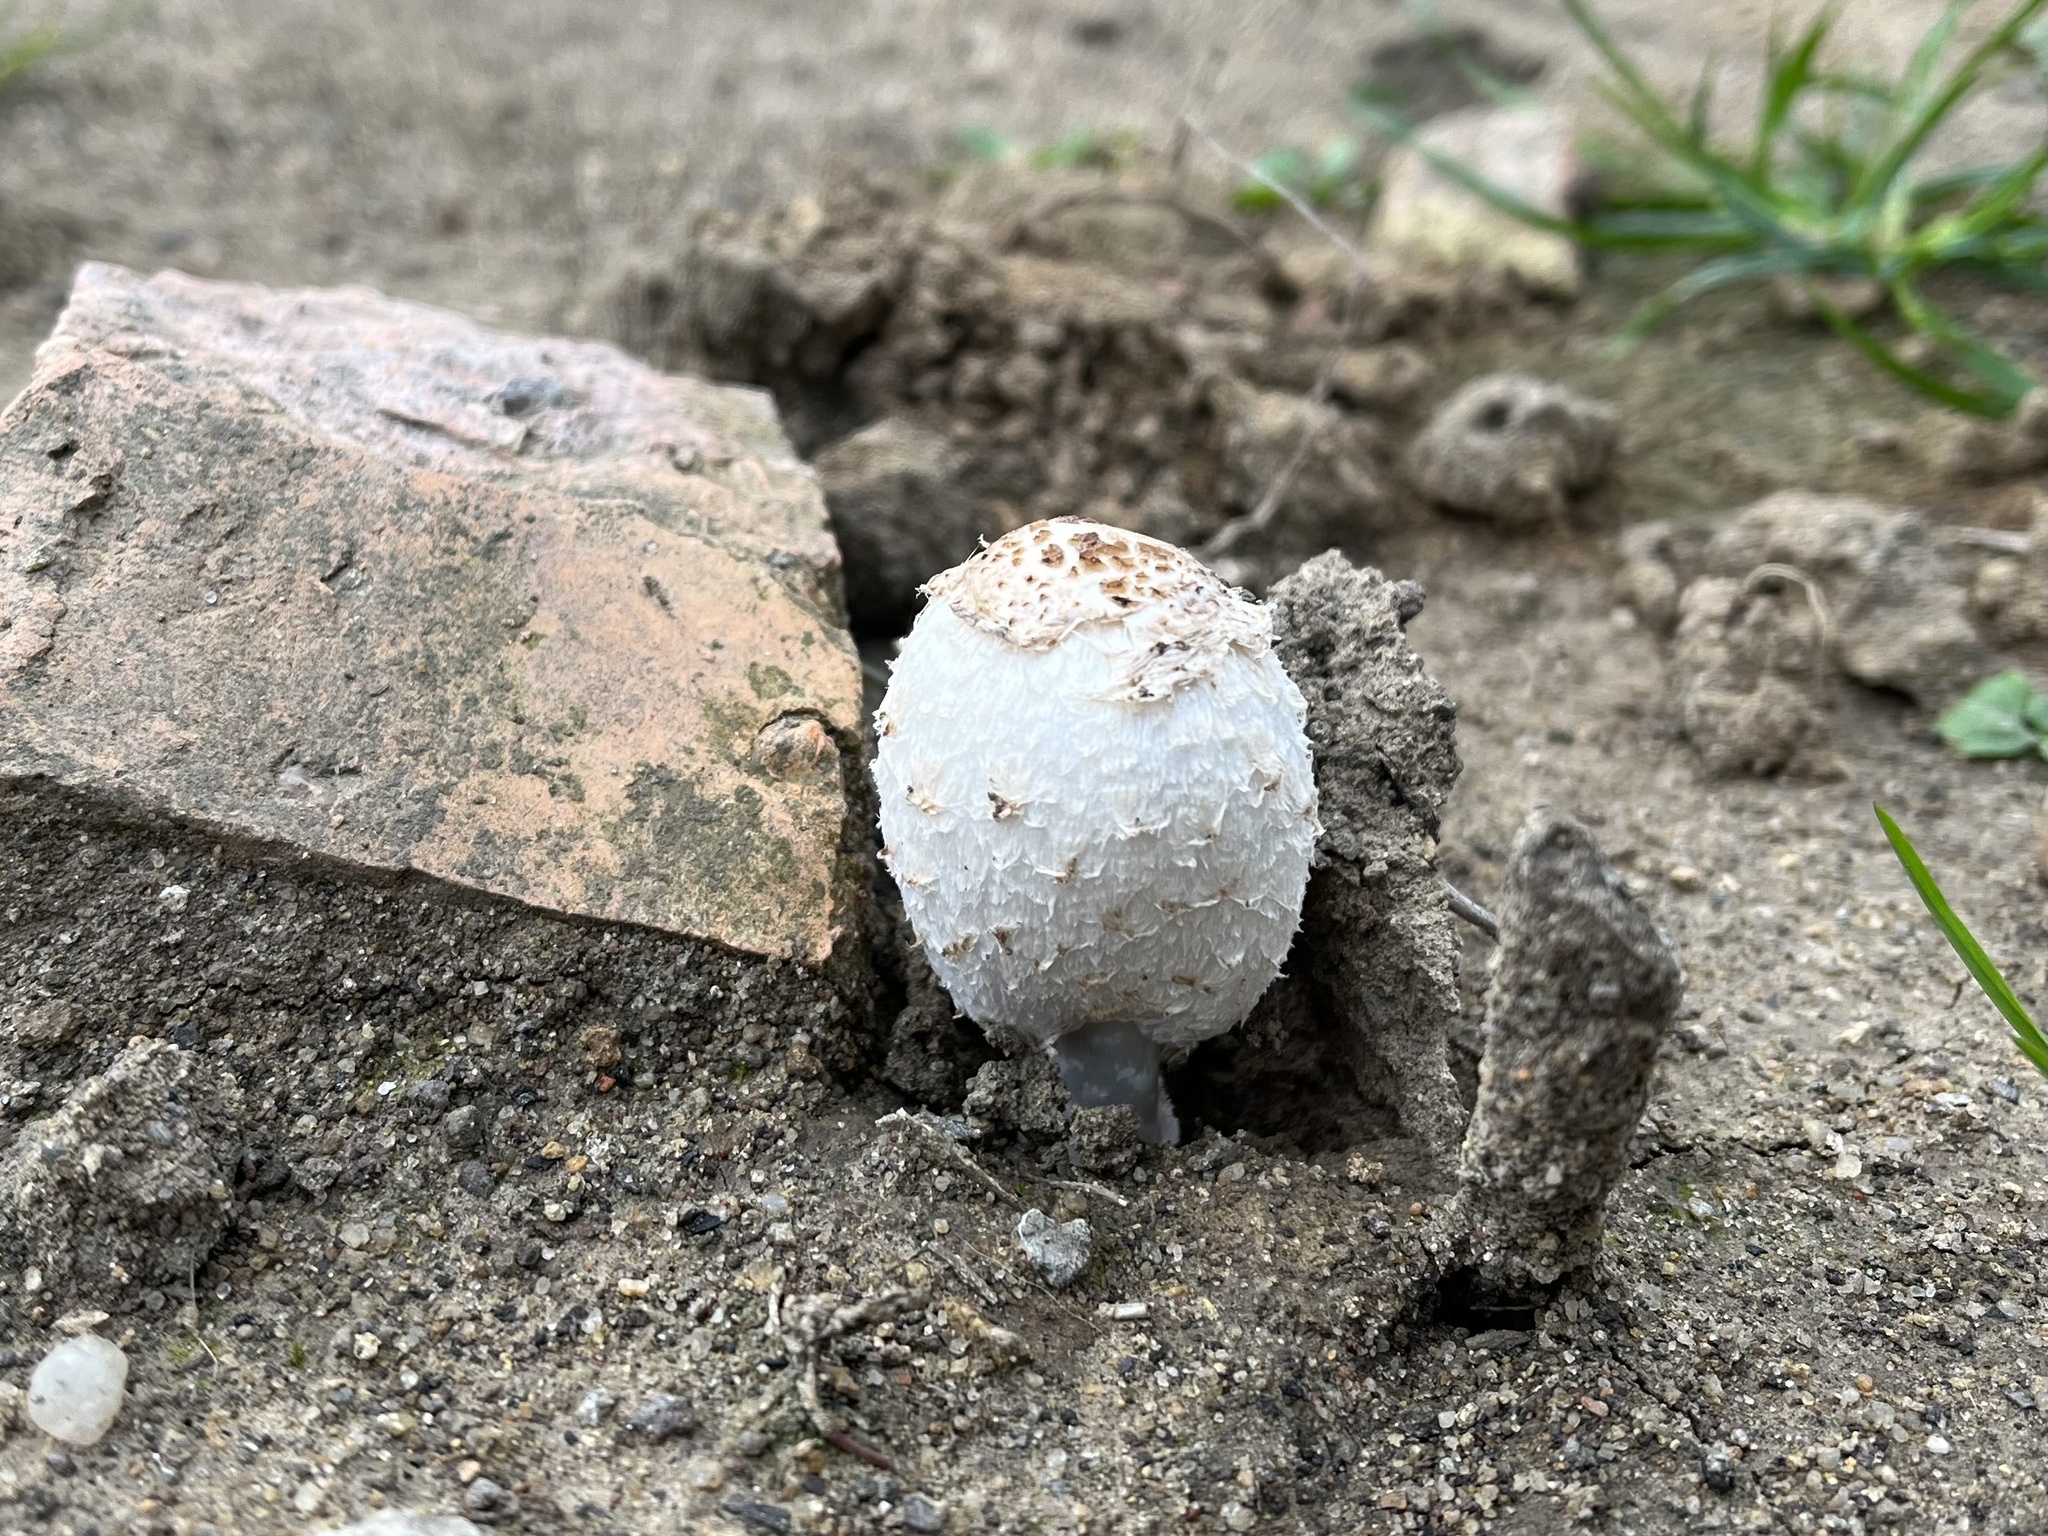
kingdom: Fungi
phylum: Basidiomycota
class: Agaricomycetes
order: Agaricales
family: Agaricaceae
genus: Coprinus
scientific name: Coprinus comatus
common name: Lawyer's wig
